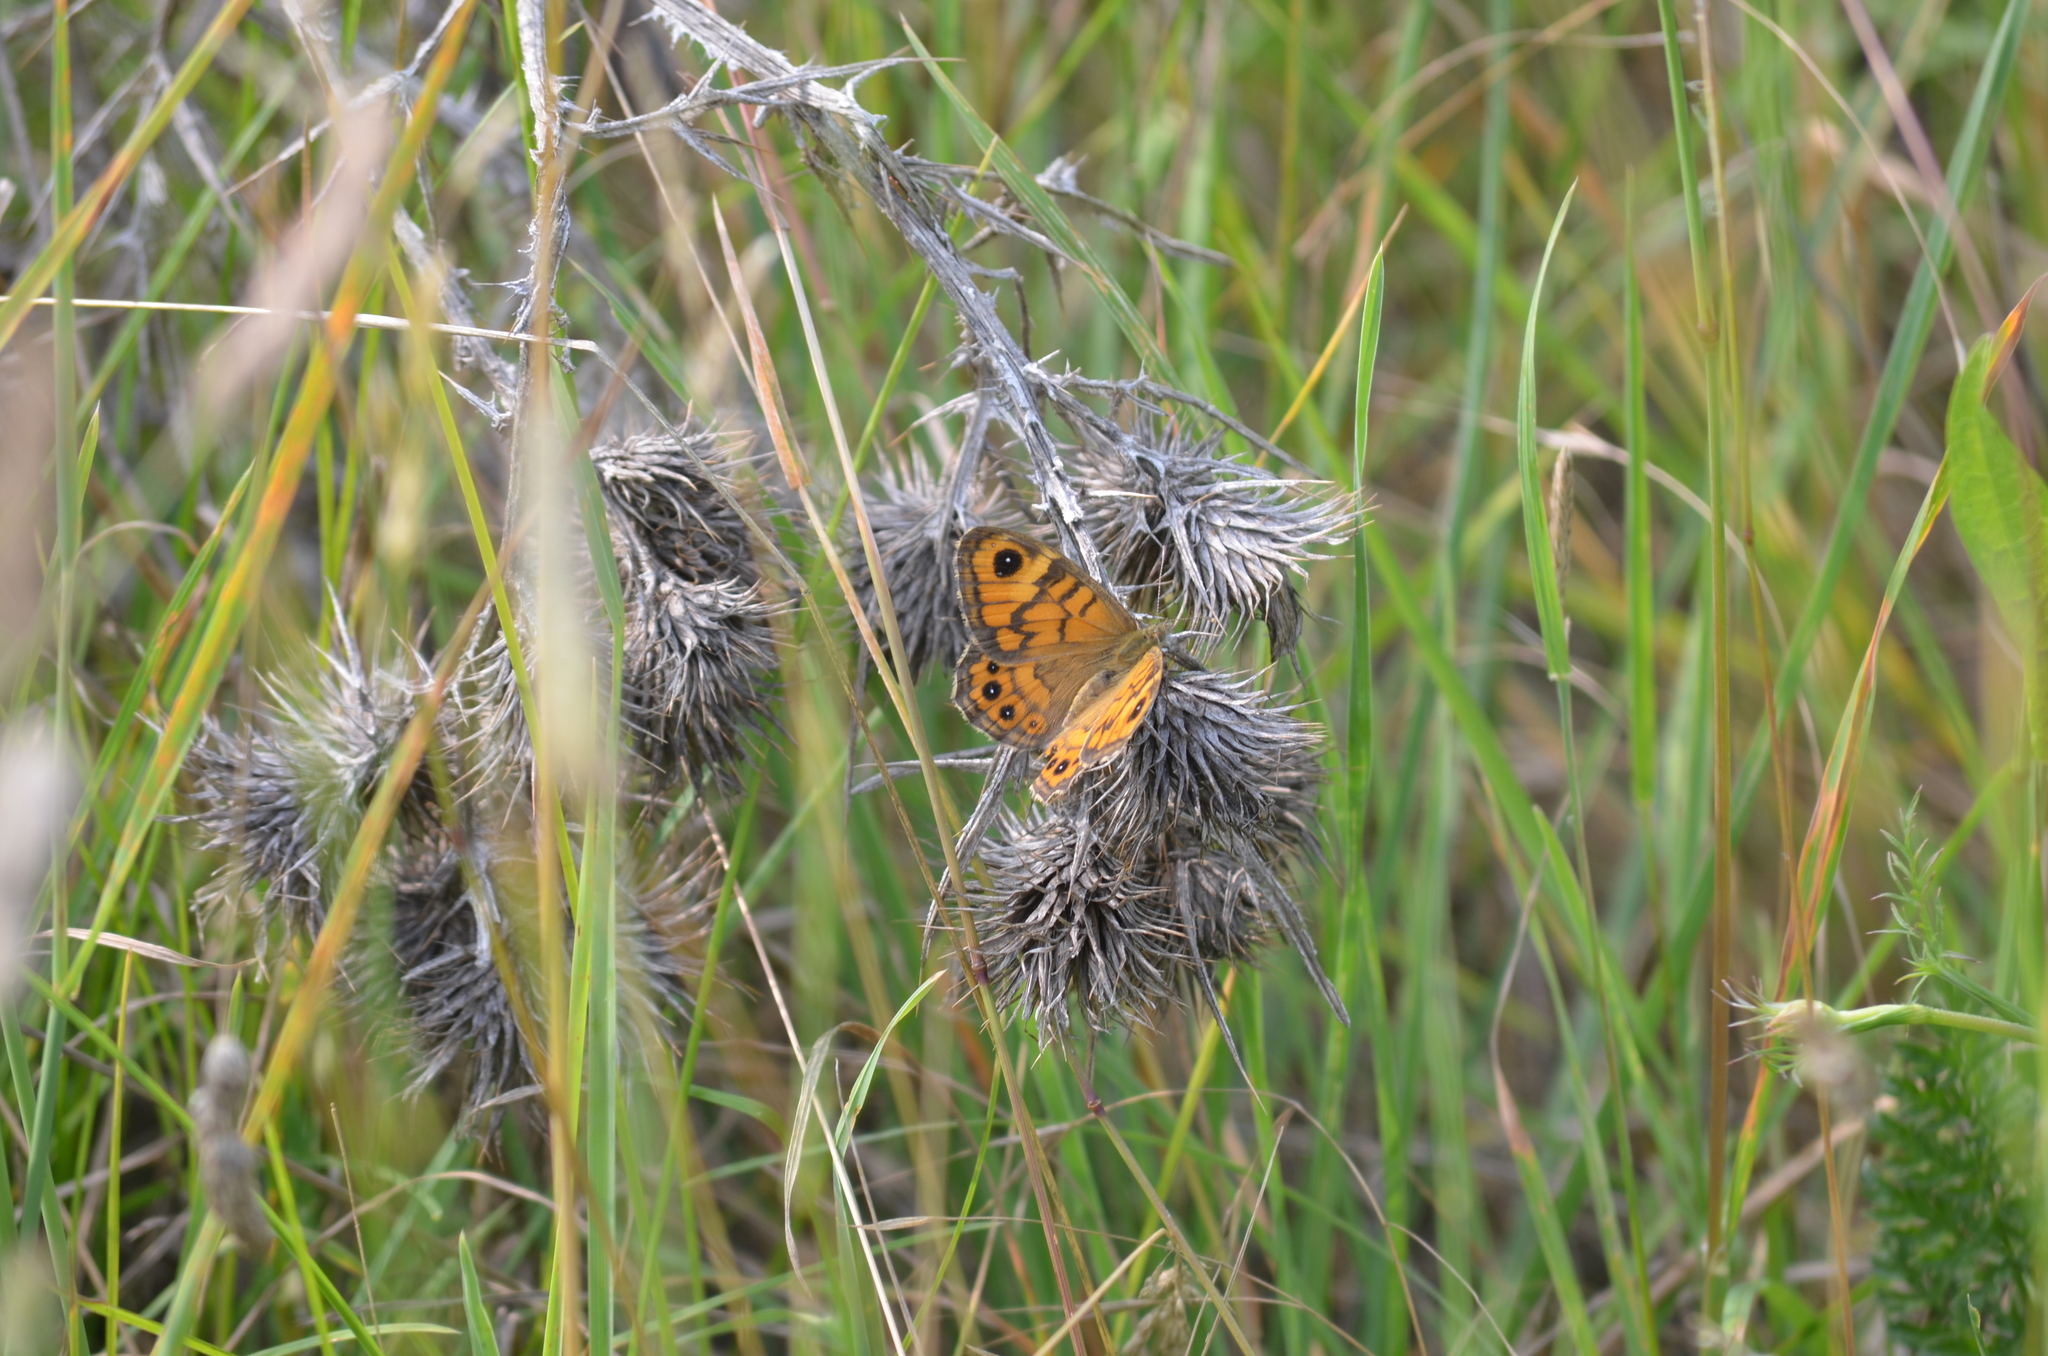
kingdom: Animalia
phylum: Arthropoda
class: Insecta
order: Lepidoptera
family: Nymphalidae
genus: Pararge
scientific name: Pararge Lasiommata megera
